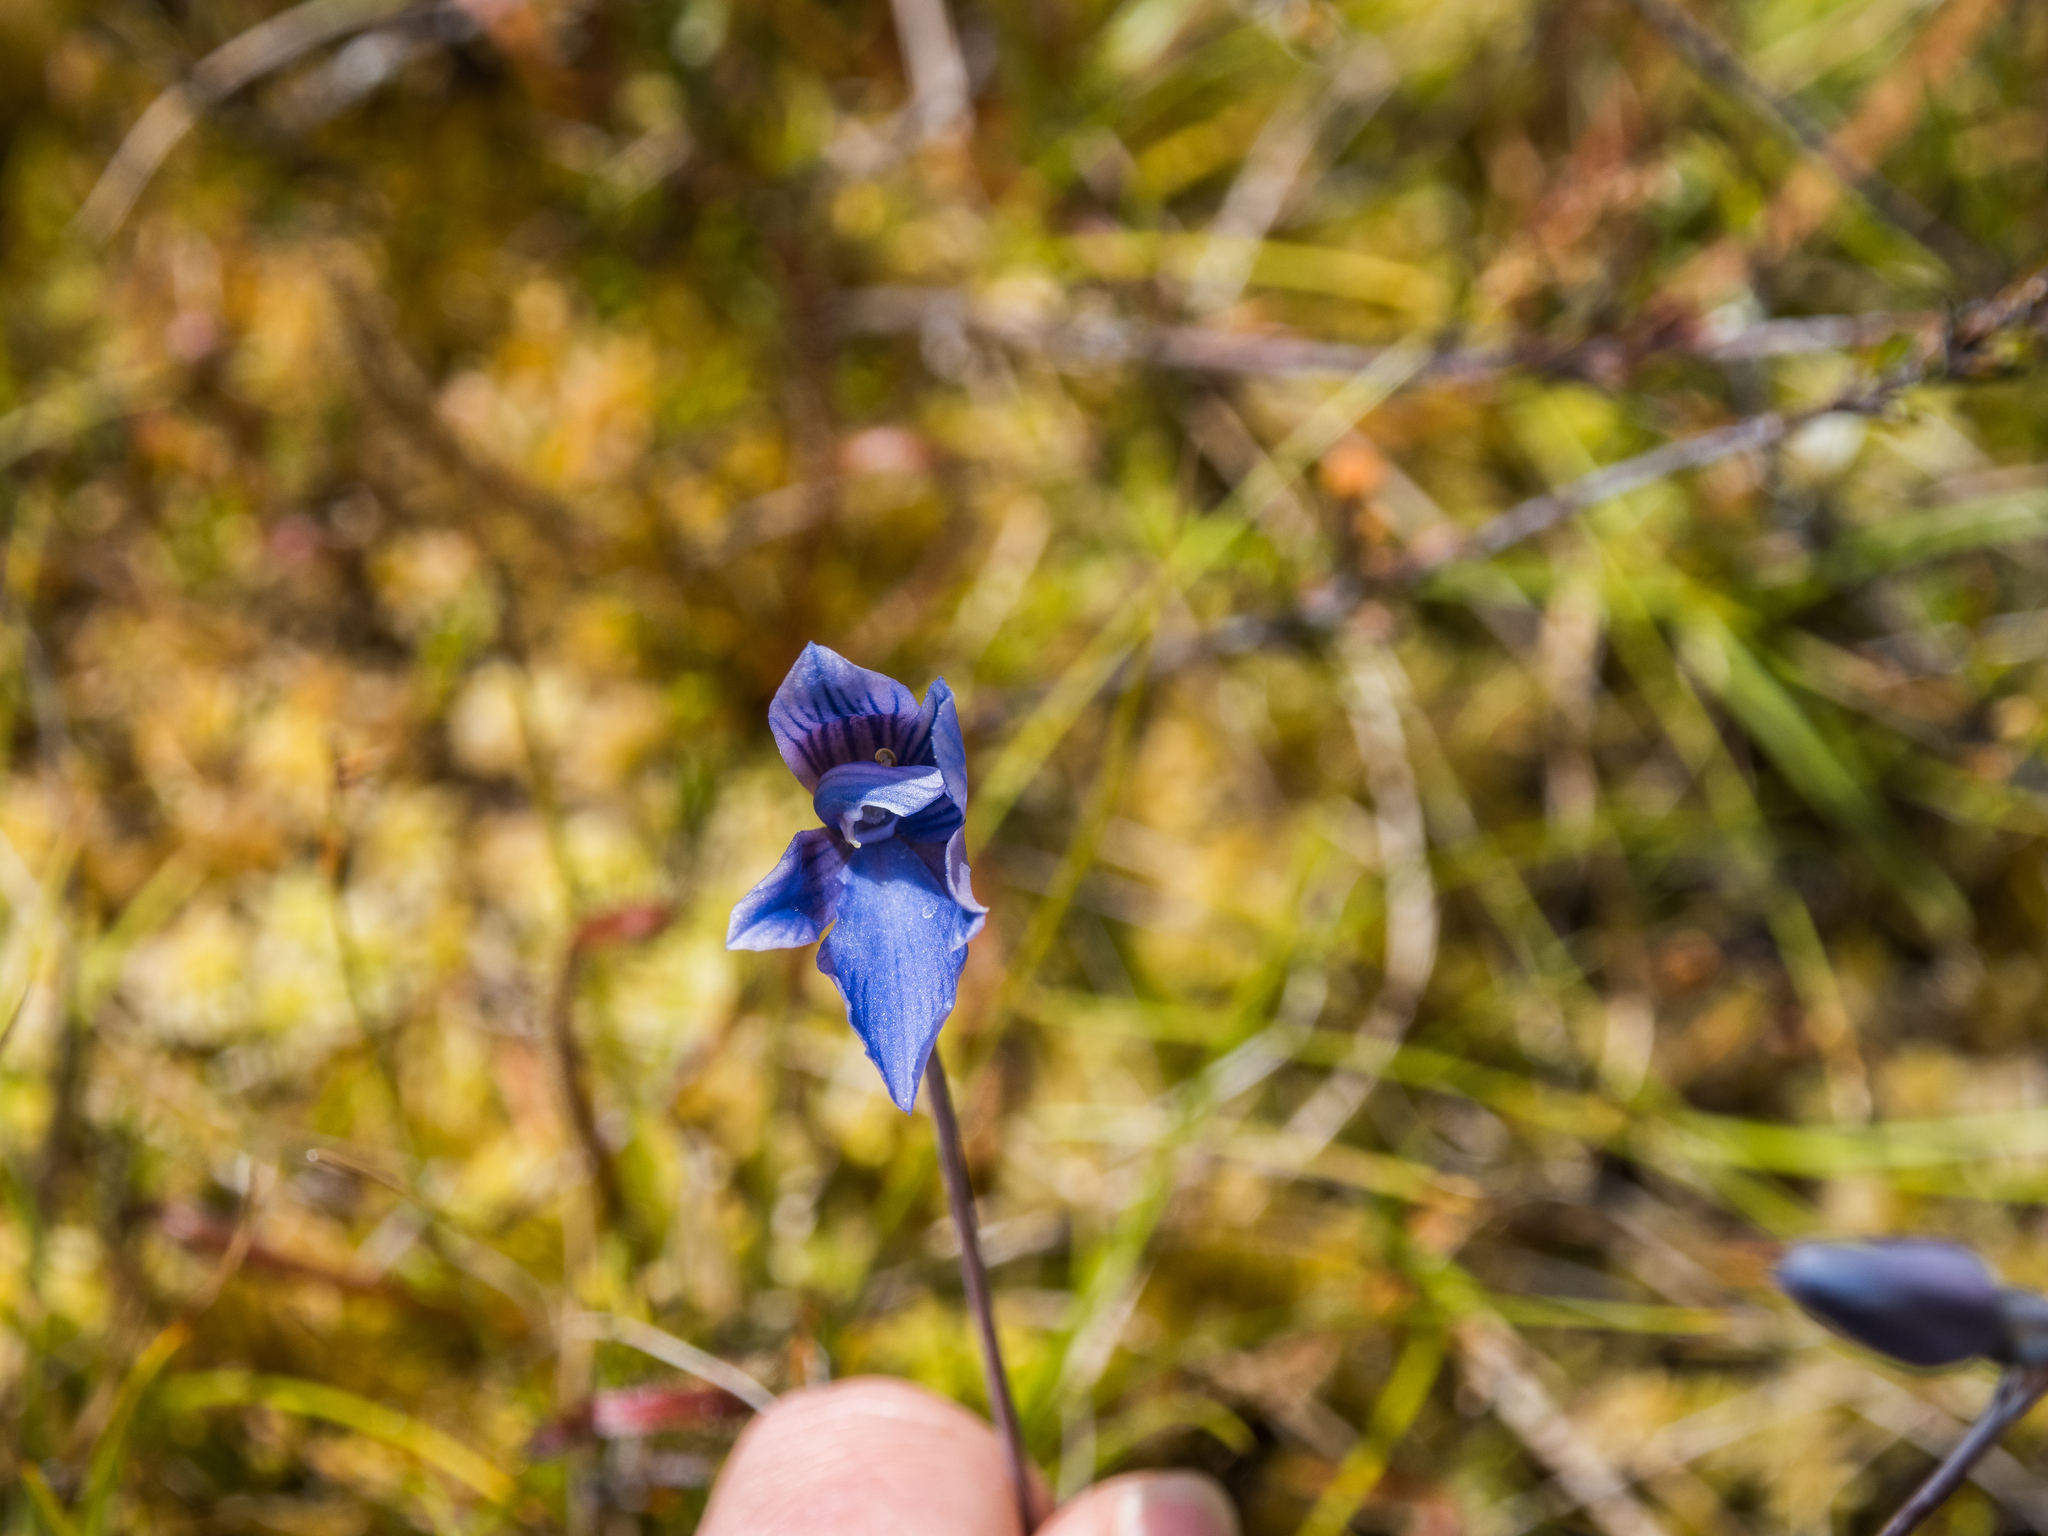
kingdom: Plantae
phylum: Tracheophyta
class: Liliopsida
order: Asparagales
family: Orchidaceae
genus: Thelymitra
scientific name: Thelymitra cyanea
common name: Blue sun-orchid
